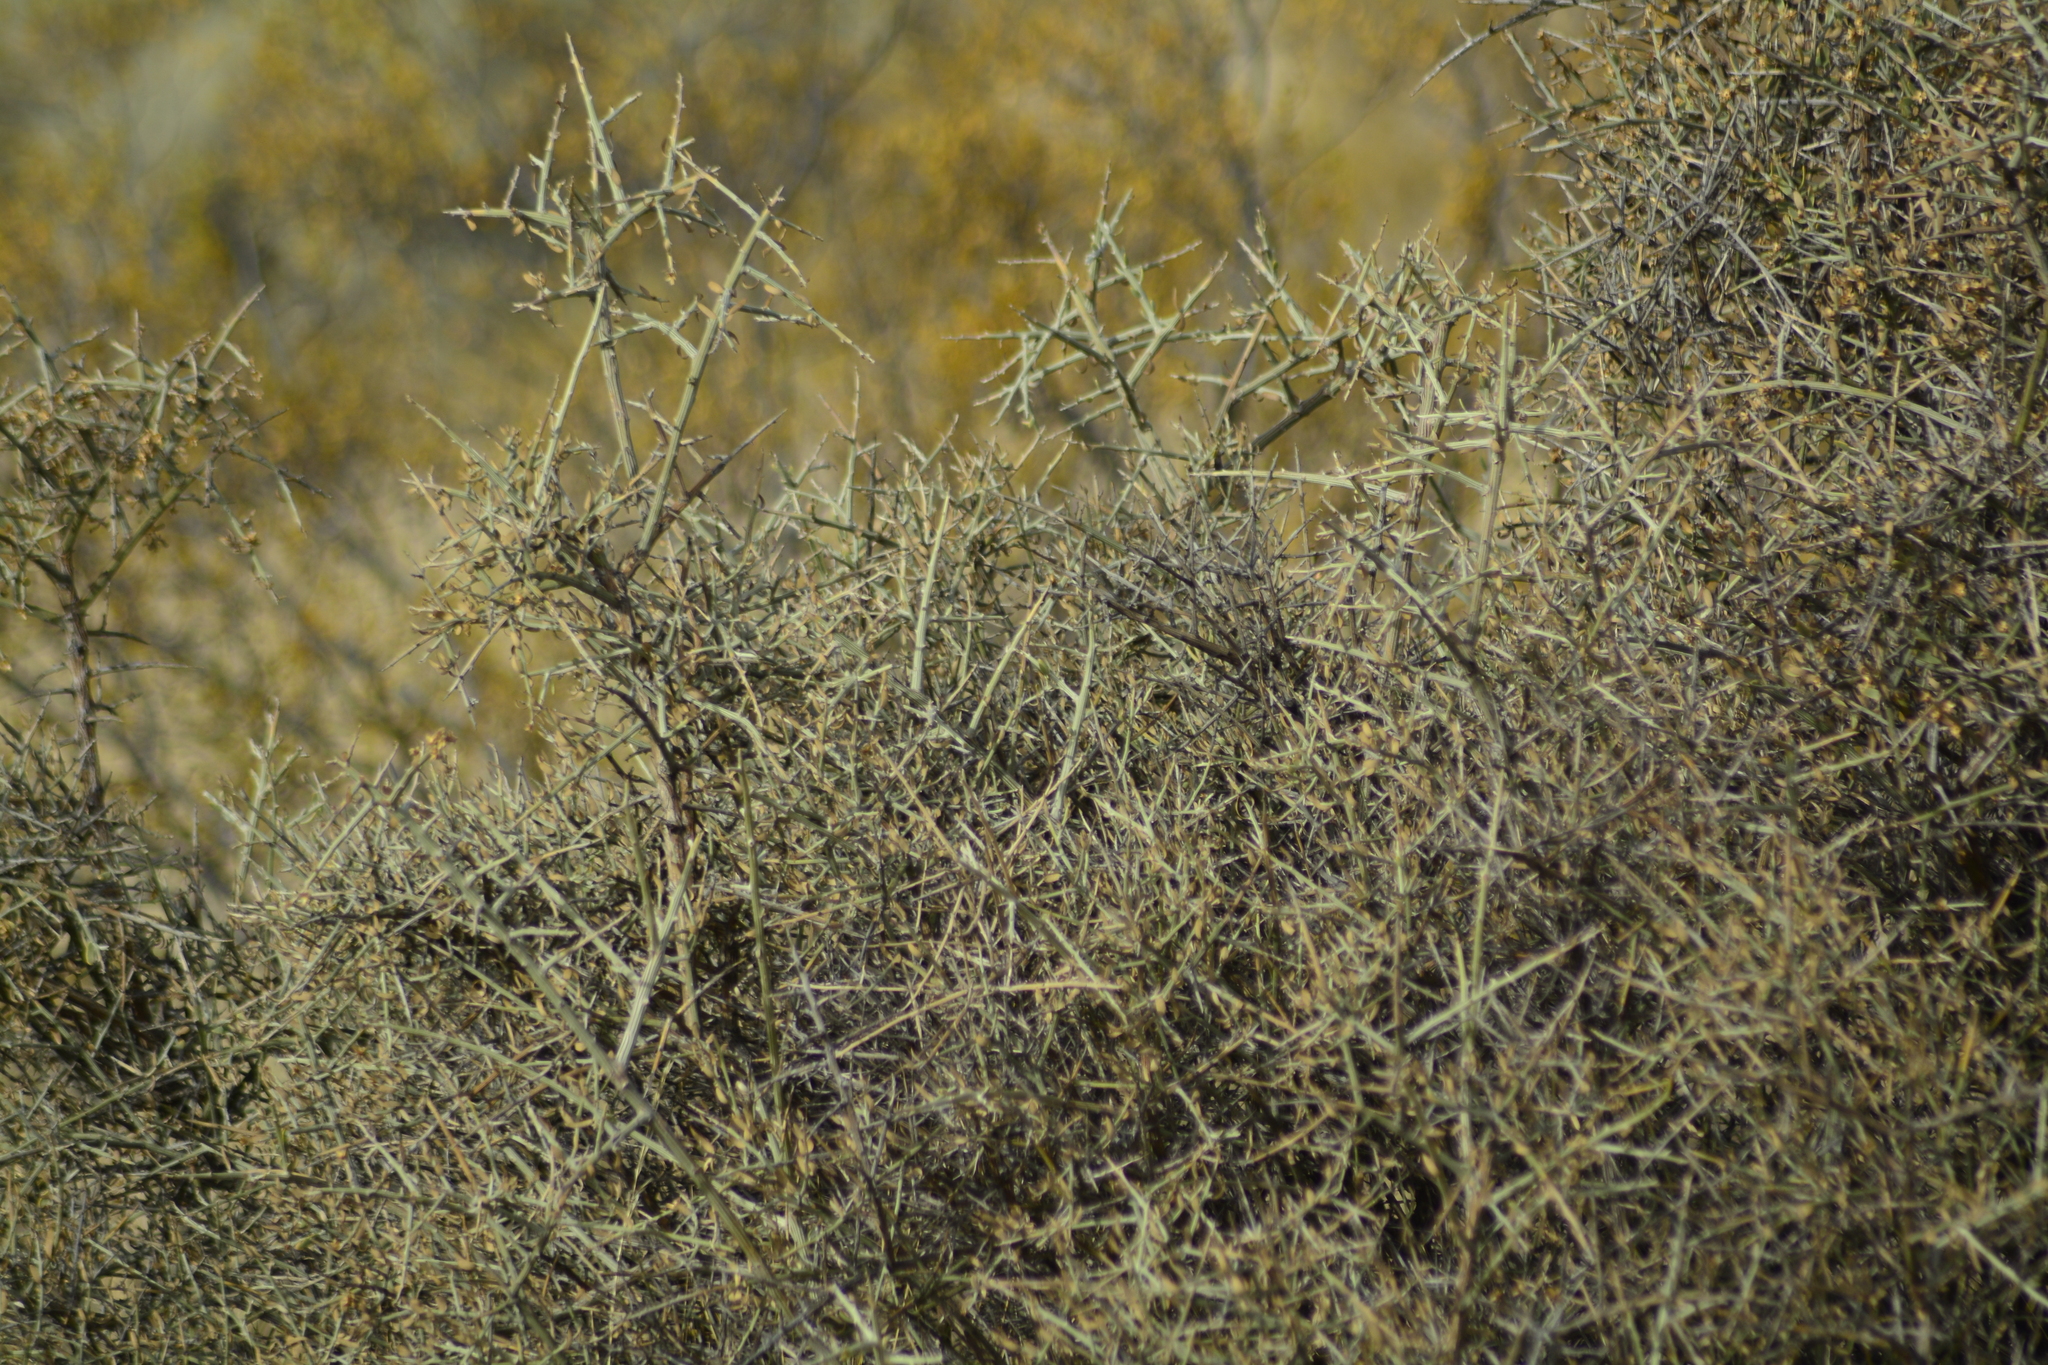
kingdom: Plantae
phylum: Tracheophyta
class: Magnoliopsida
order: Asterales
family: Asteraceae
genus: Cyclolepis
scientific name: Cyclolepis genistoides
